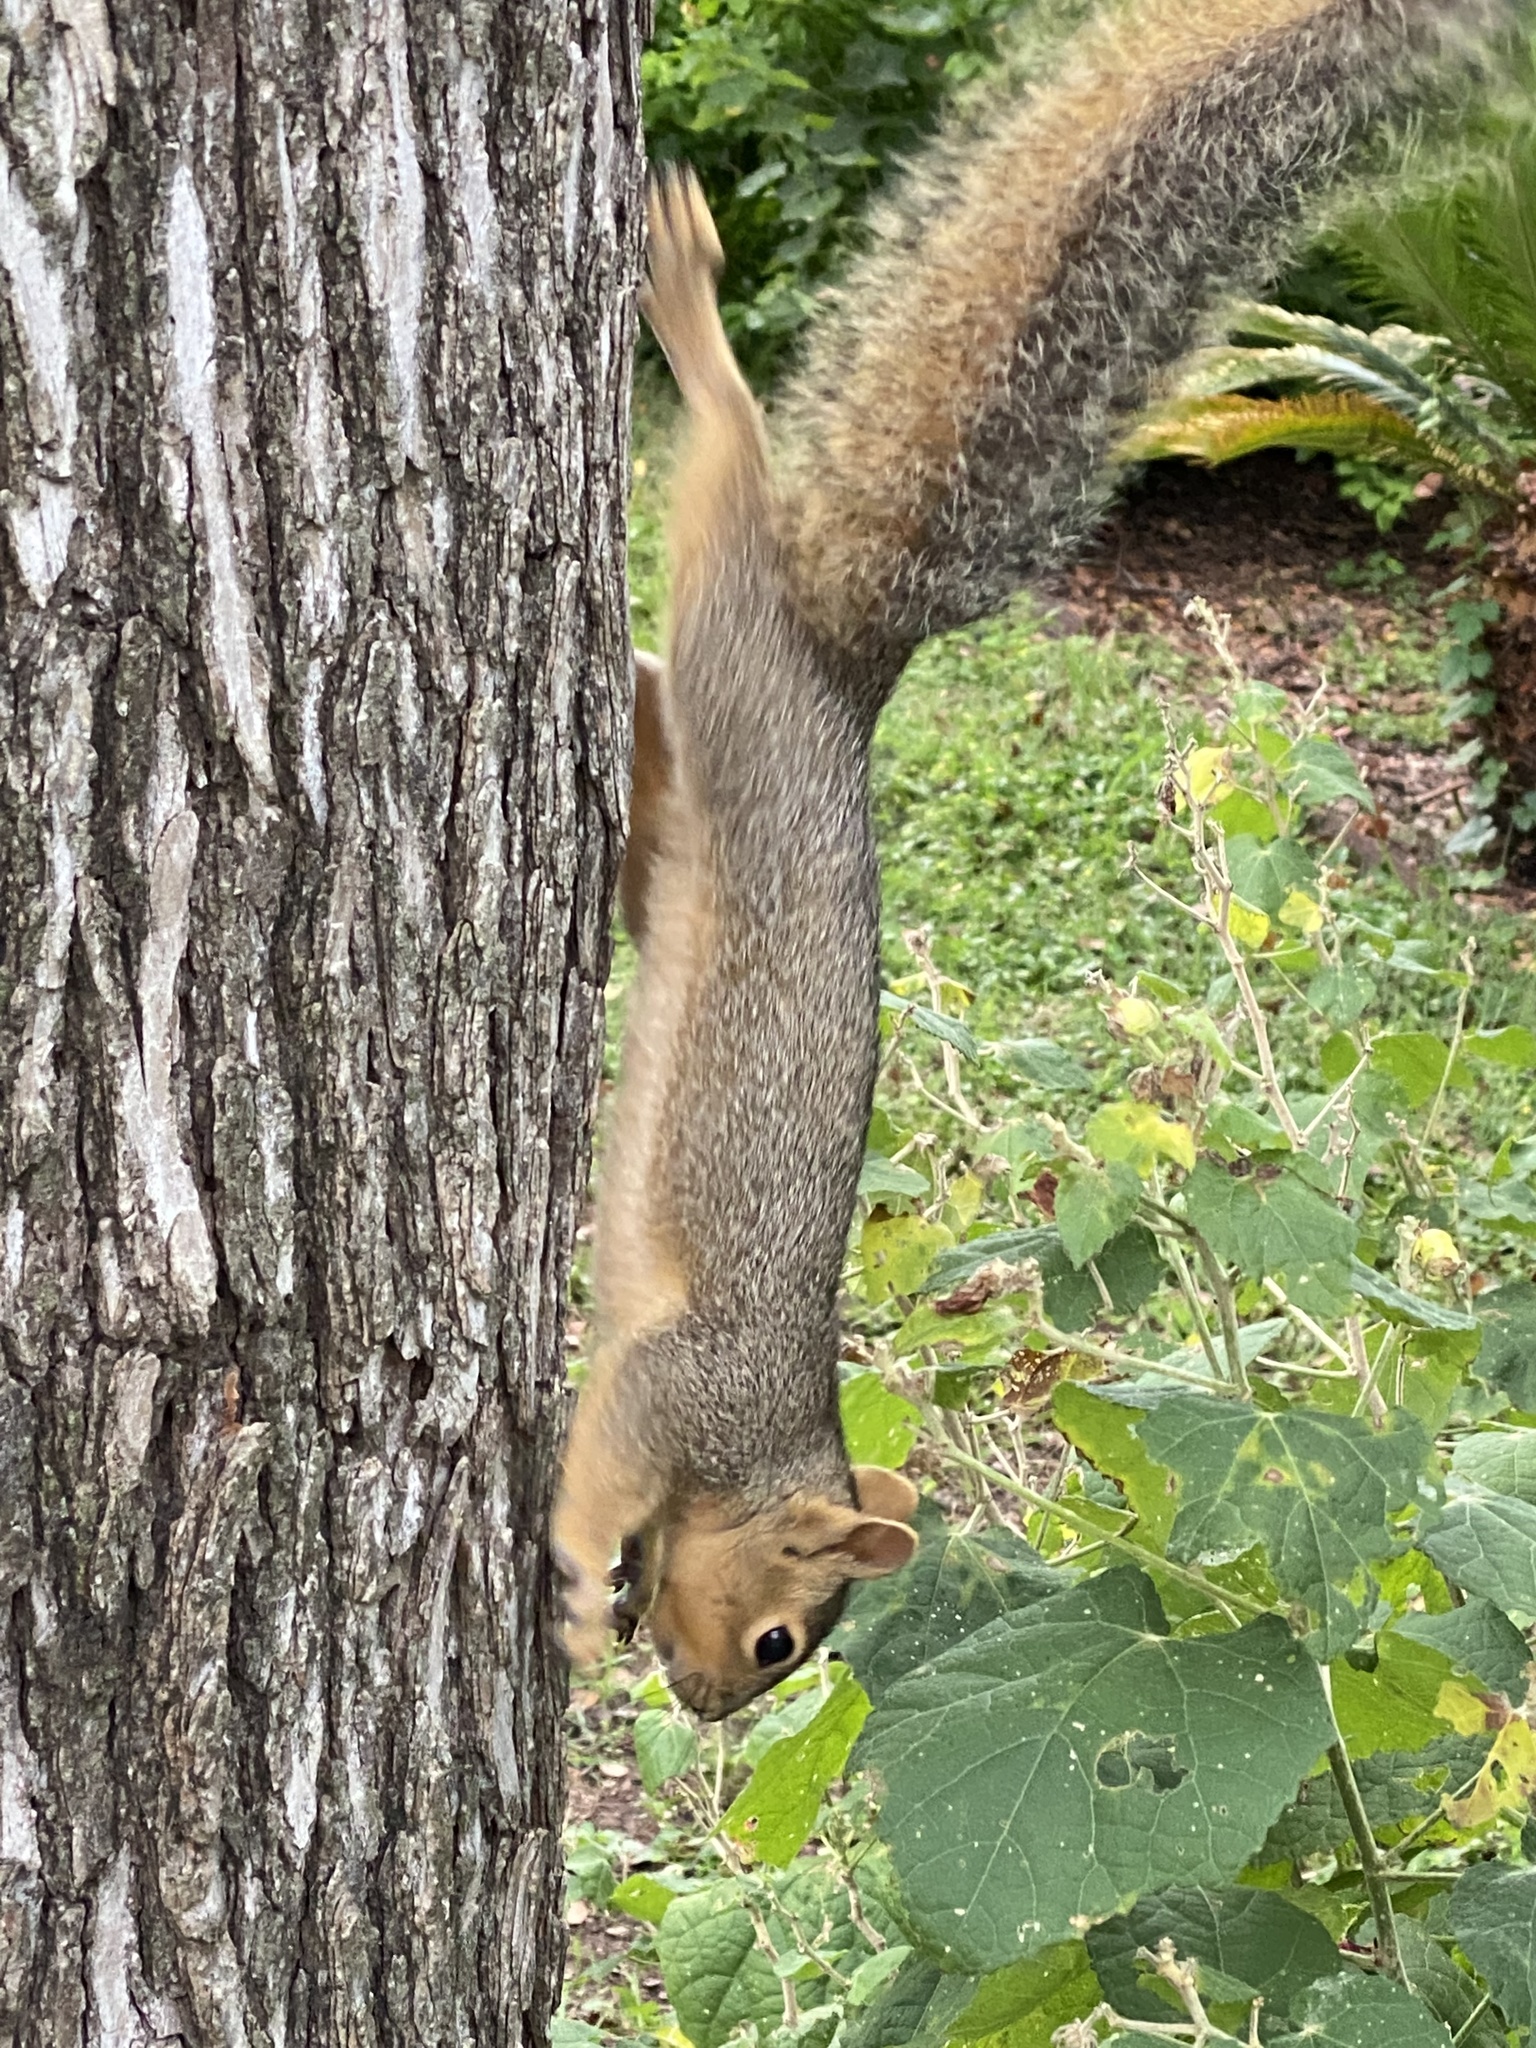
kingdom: Animalia
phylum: Chordata
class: Mammalia
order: Rodentia
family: Sciuridae
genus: Sciurus
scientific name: Sciurus niger
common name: Fox squirrel
